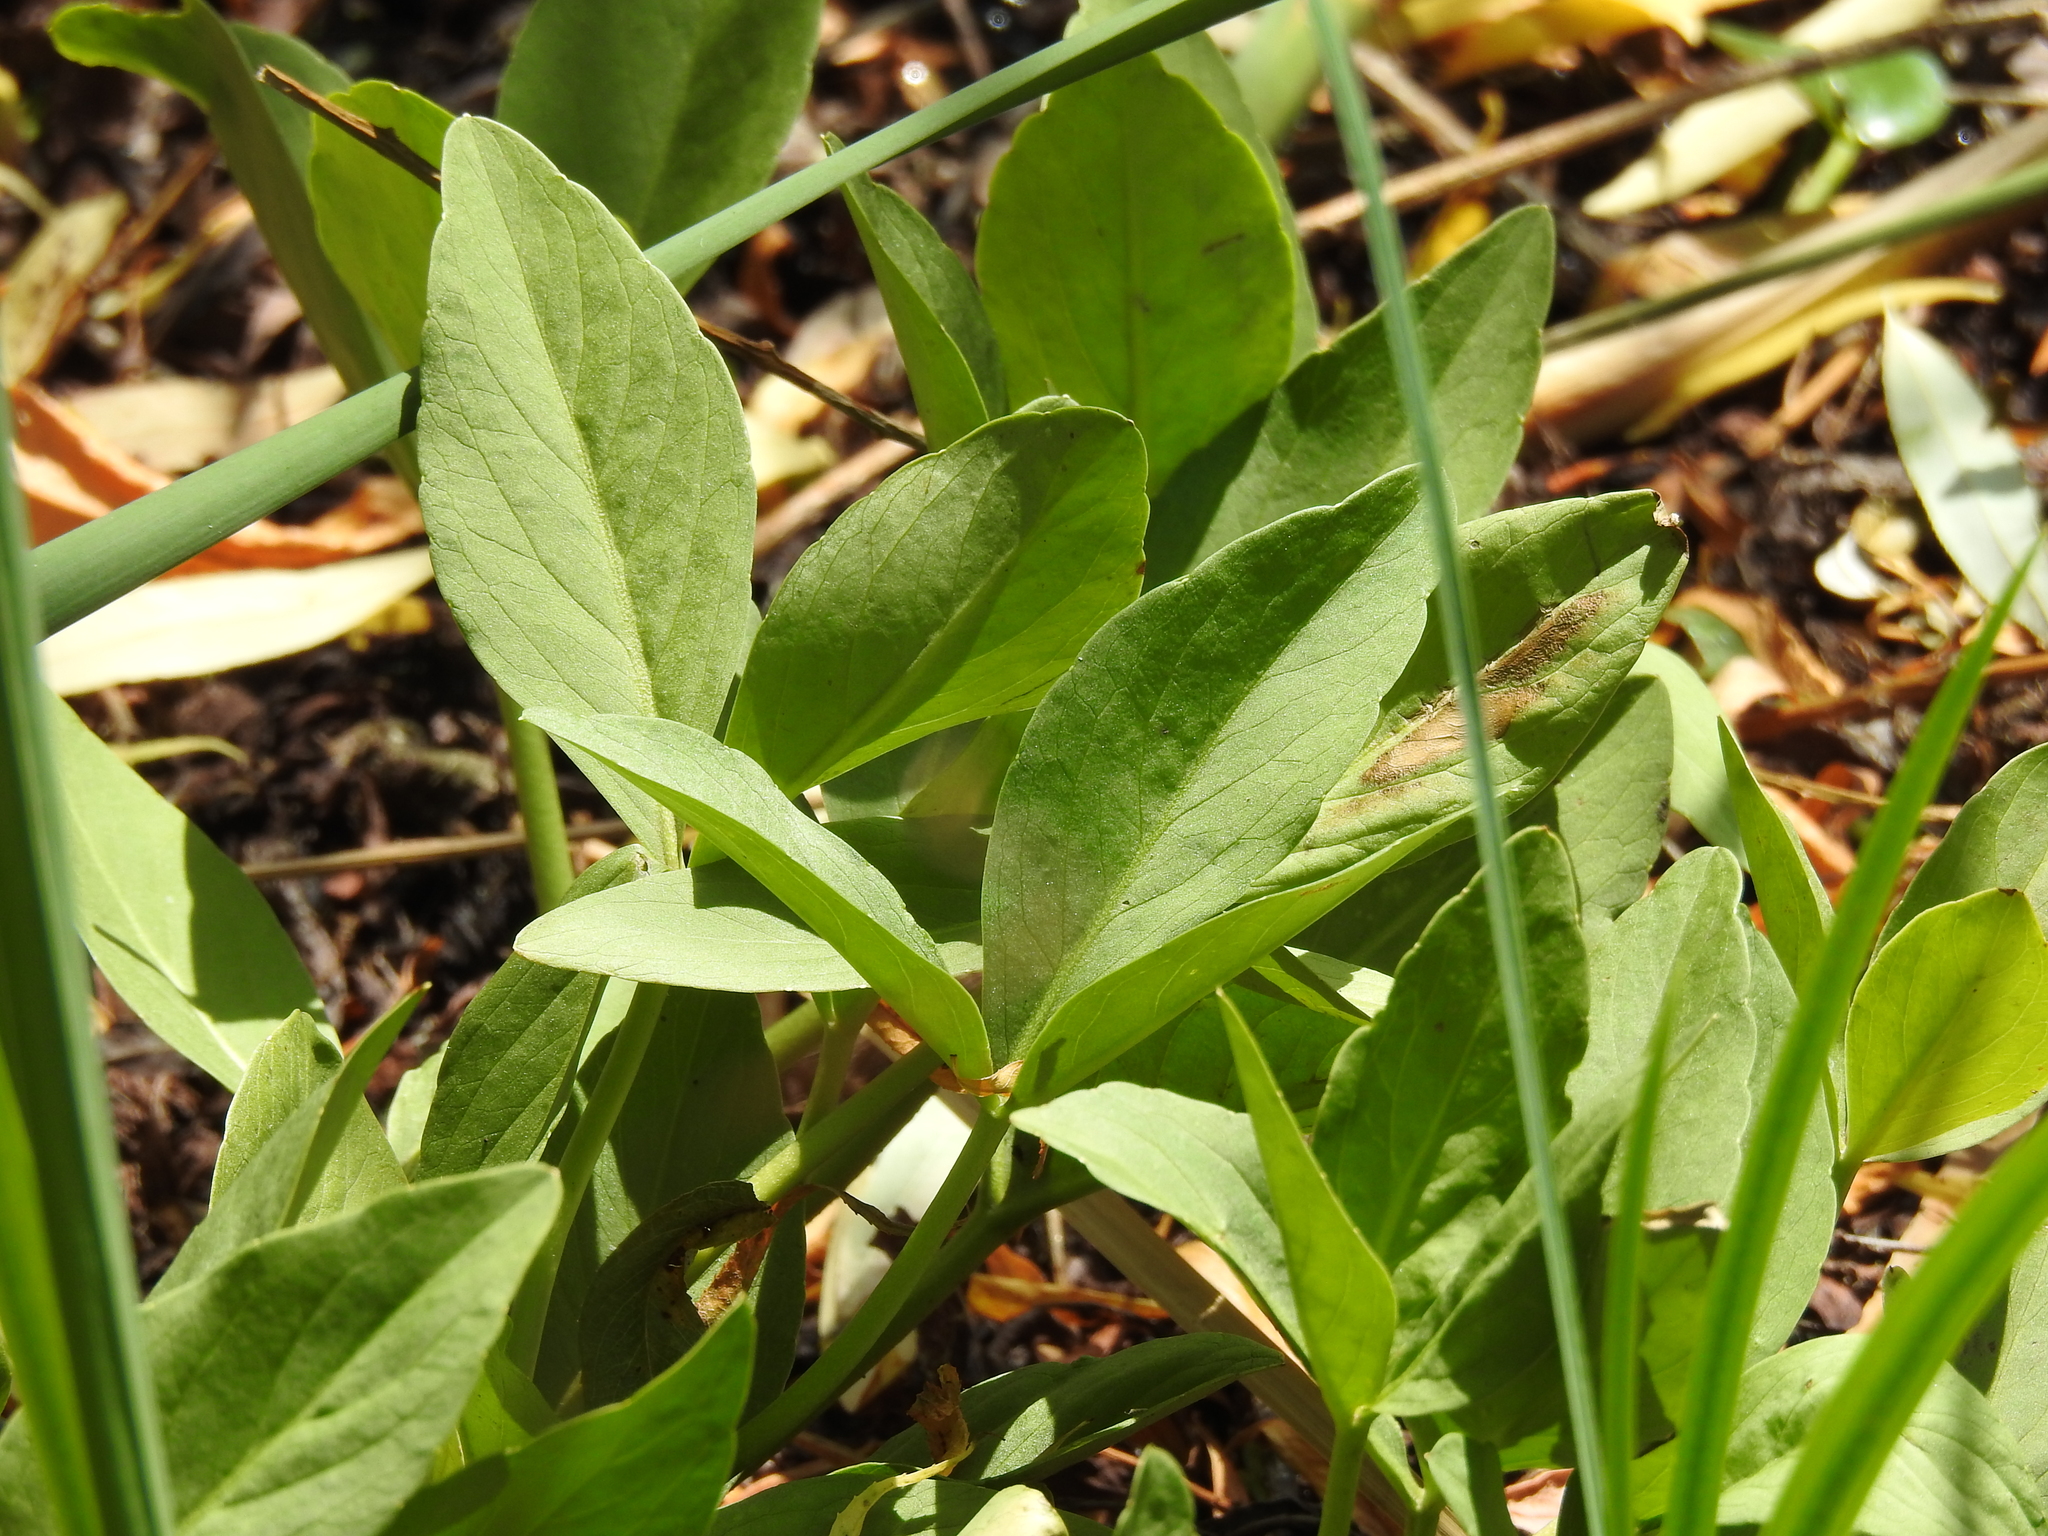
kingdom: Plantae
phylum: Tracheophyta
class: Magnoliopsida
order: Asterales
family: Menyanthaceae
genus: Menyanthes
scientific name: Menyanthes trifoliata
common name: Bogbean
